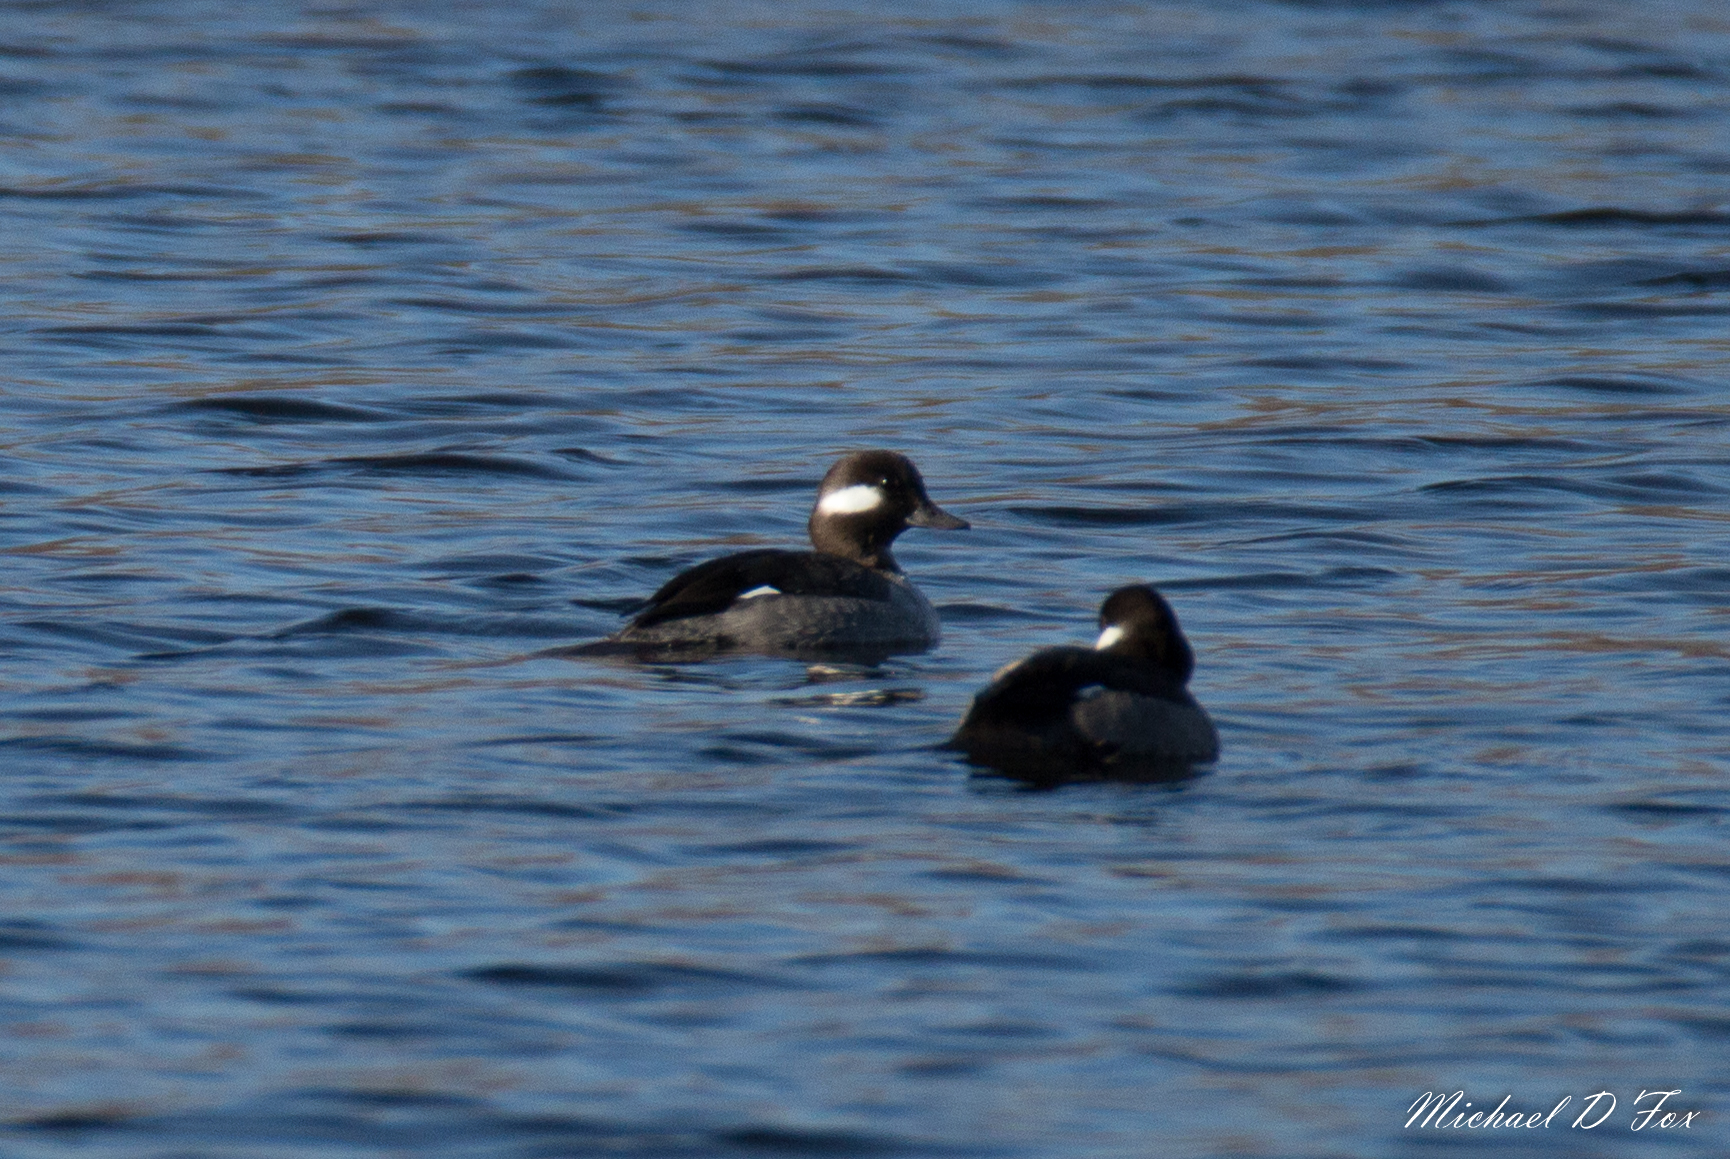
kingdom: Animalia
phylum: Chordata
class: Aves
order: Anseriformes
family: Anatidae
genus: Bucephala
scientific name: Bucephala albeola
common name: Bufflehead
